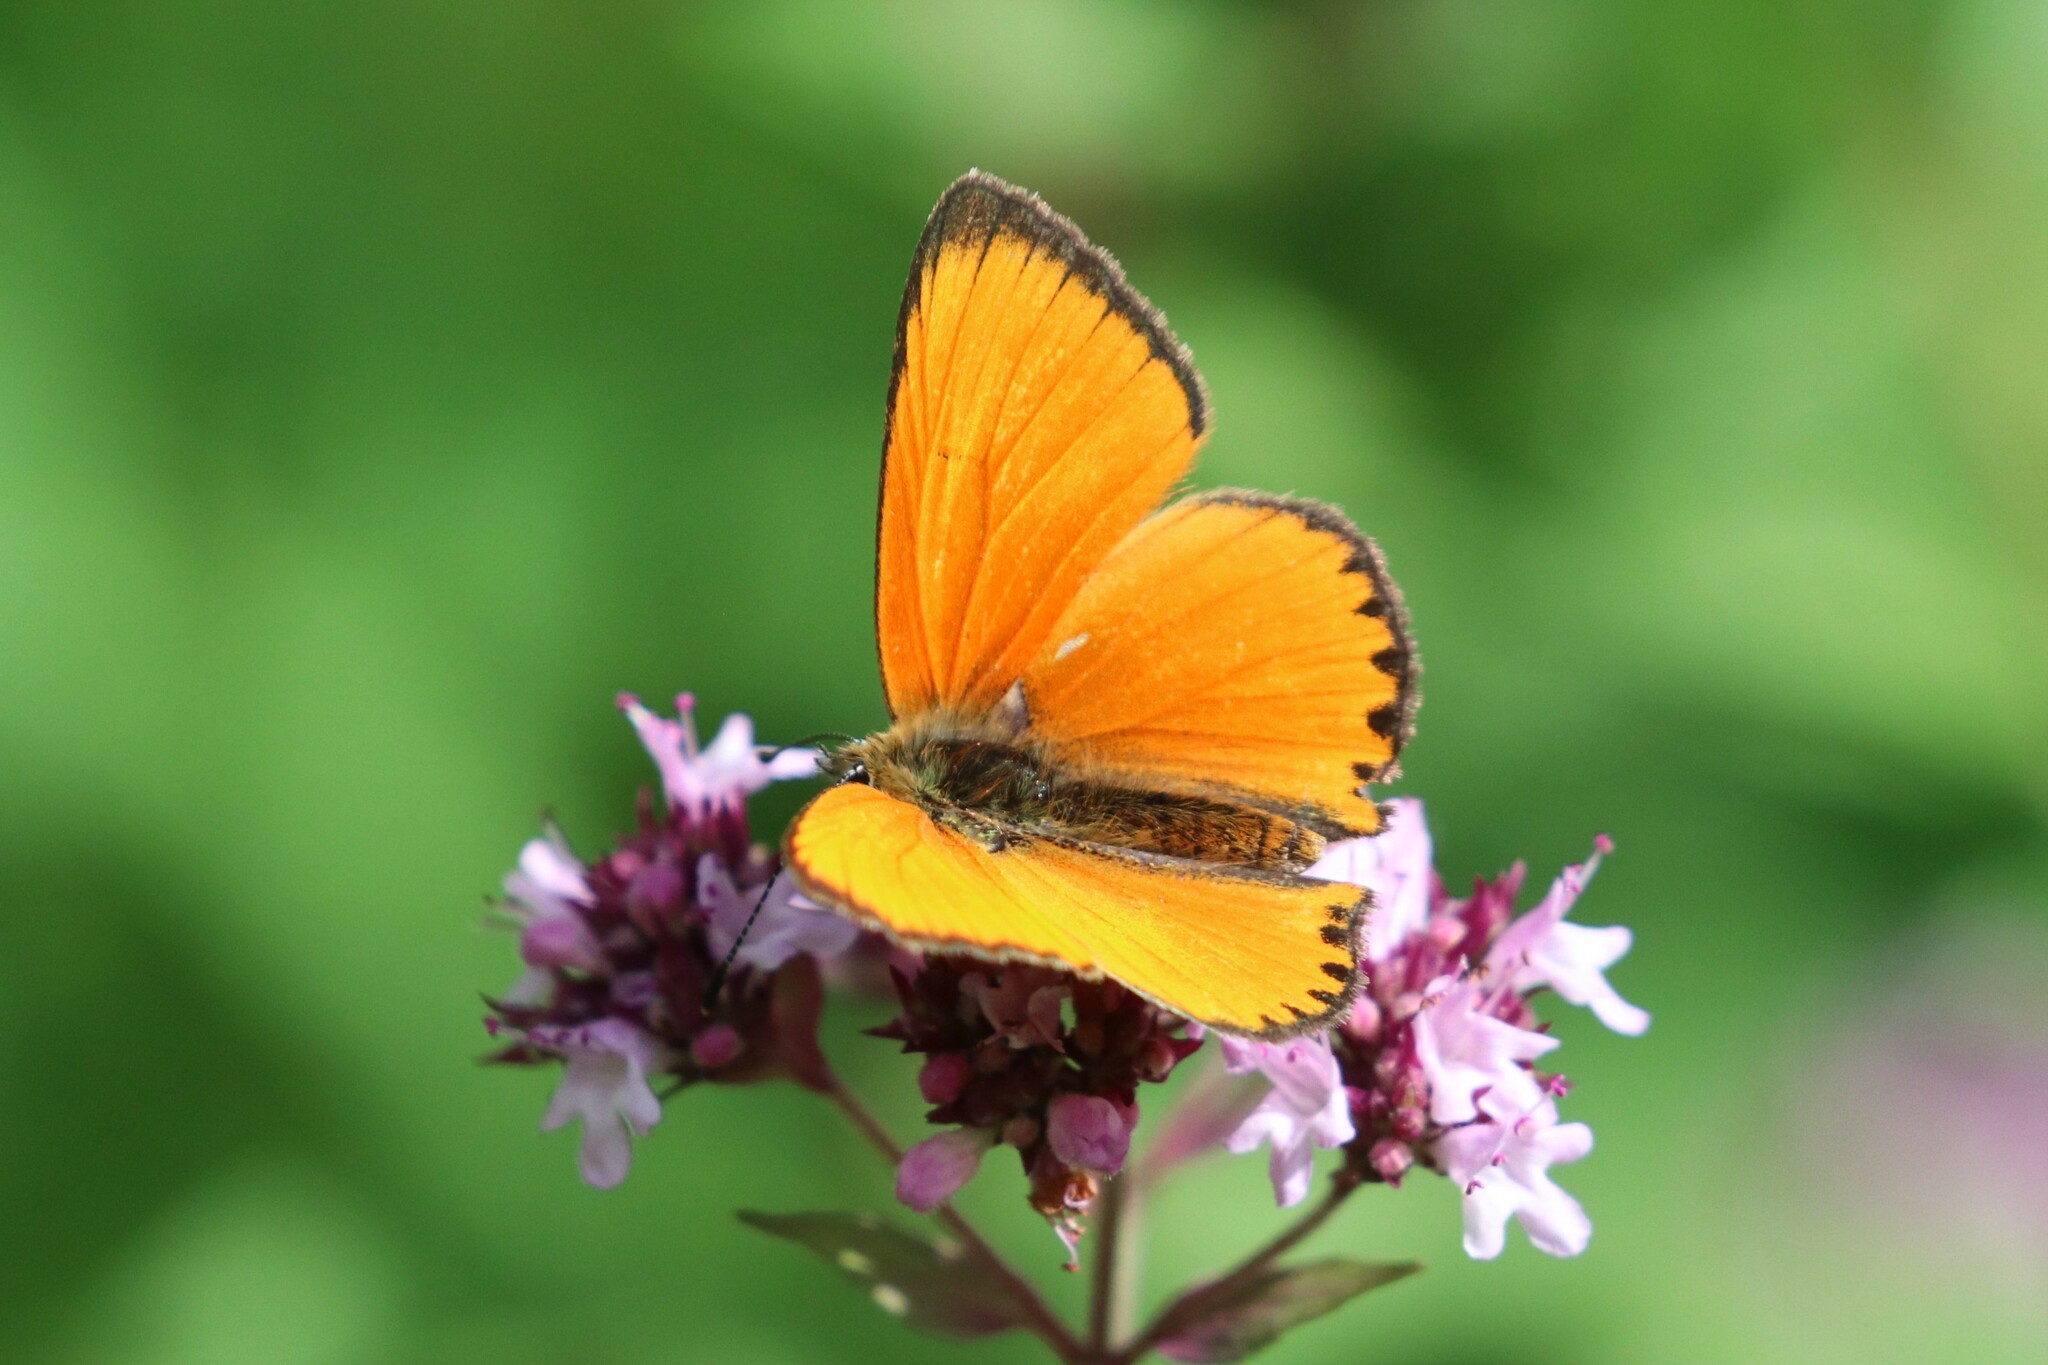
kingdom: Animalia
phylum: Arthropoda
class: Insecta
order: Lepidoptera
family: Lycaenidae
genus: Lycaena
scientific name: Lycaena virgaureae
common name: Scarce copper
